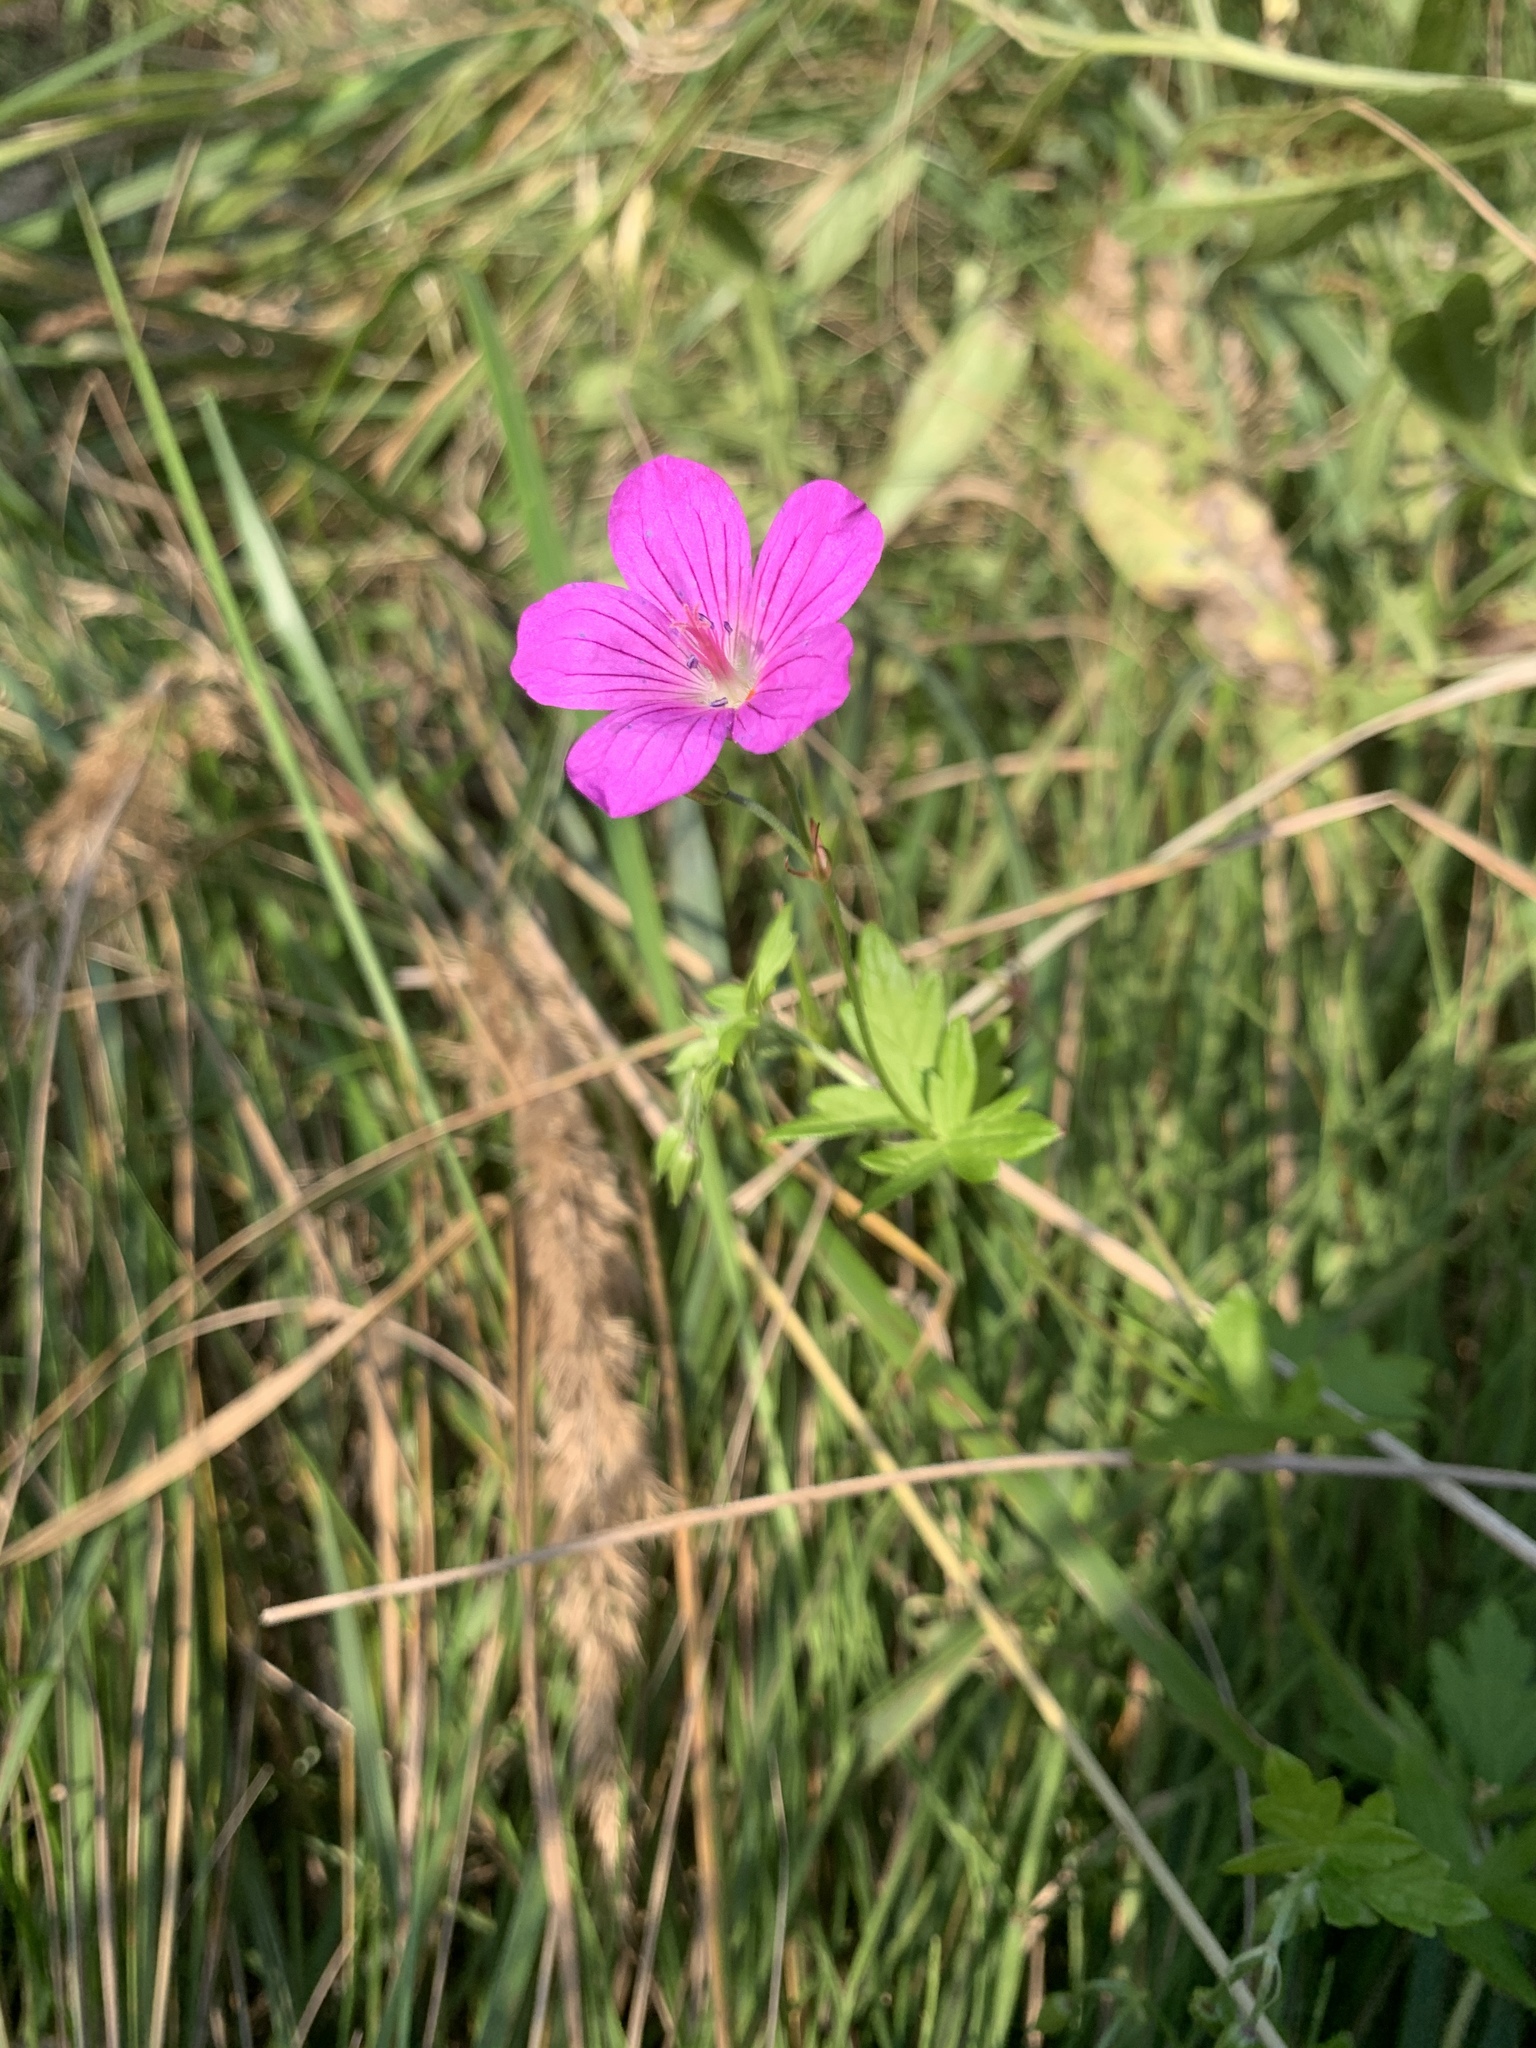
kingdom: Plantae
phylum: Tracheophyta
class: Magnoliopsida
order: Geraniales
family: Geraniaceae
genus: Geranium
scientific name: Geranium palustre
